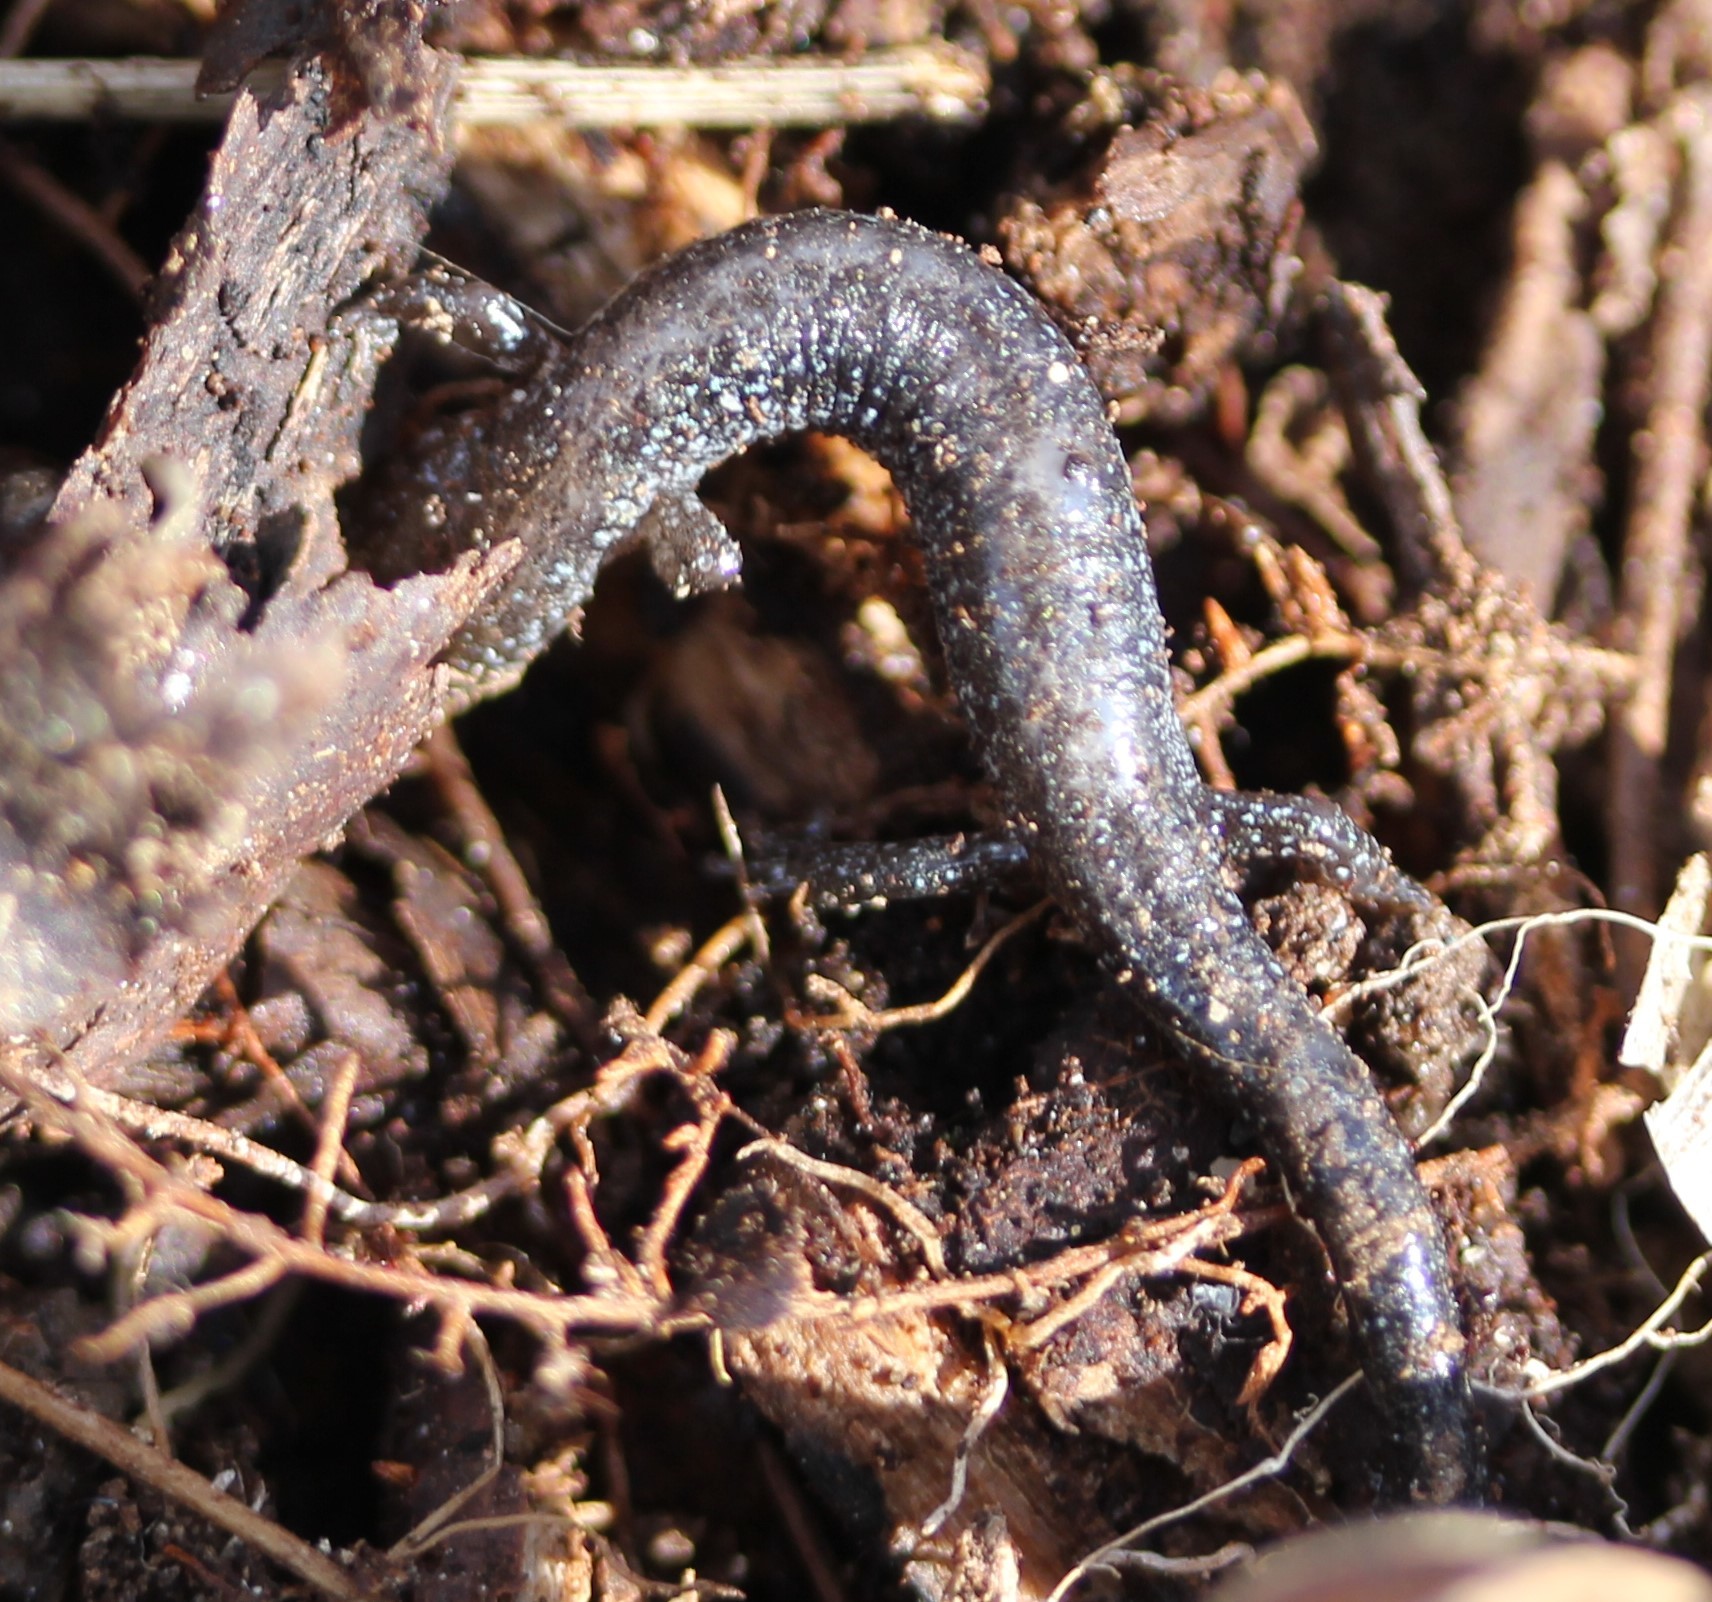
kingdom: Animalia
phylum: Chordata
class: Amphibia
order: Caudata
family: Plethodontidae
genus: Plethodon
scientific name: Plethodon cinereus
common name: Redback salamander
